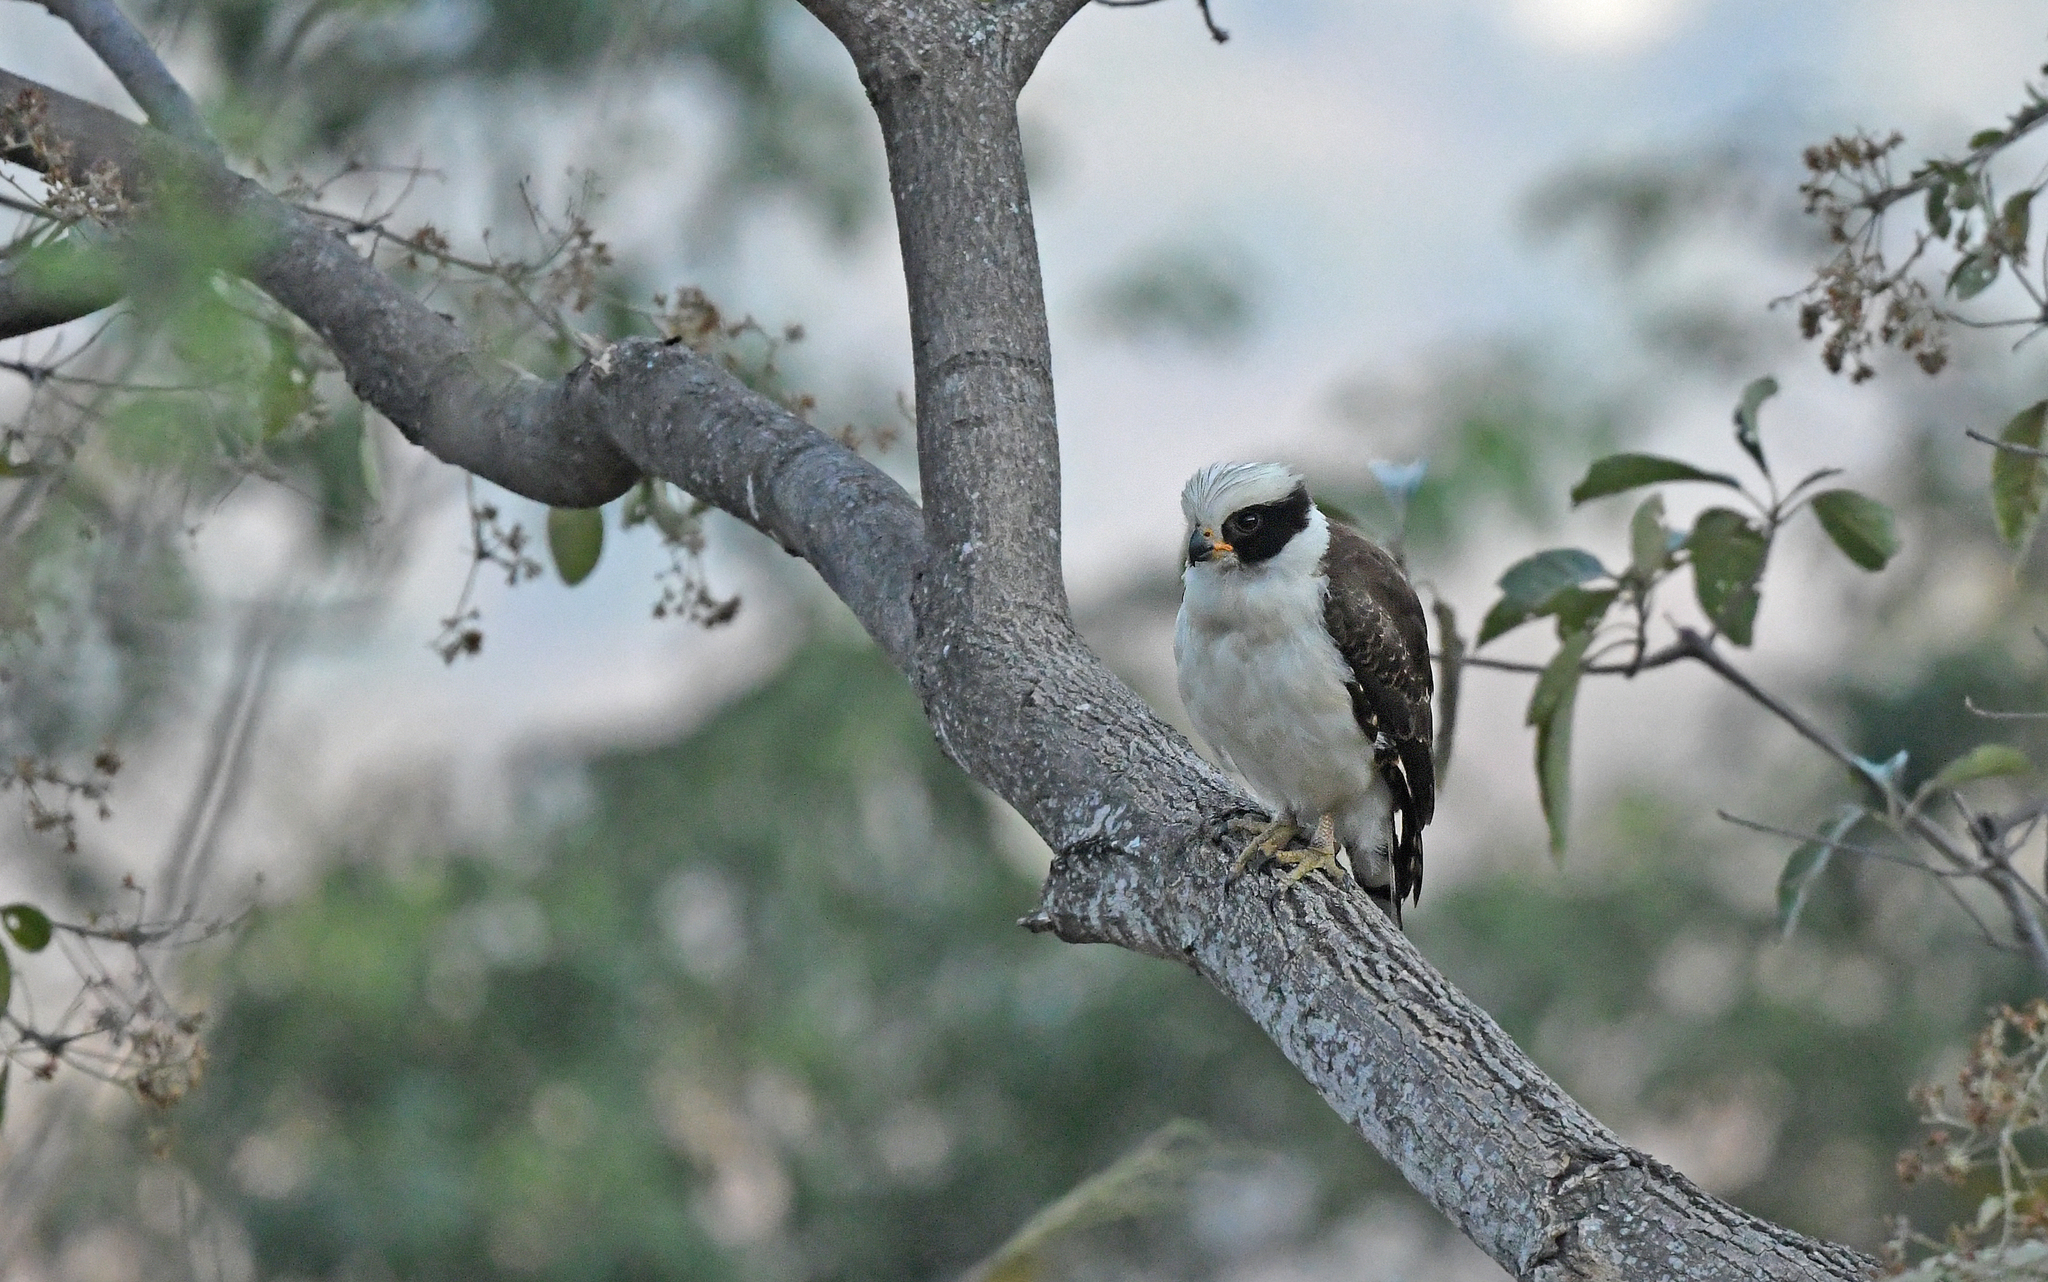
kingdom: Animalia
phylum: Chordata
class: Aves
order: Falconiformes
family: Falconidae
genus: Herpetotheres
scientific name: Herpetotheres cachinnans
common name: Laughing falcon
